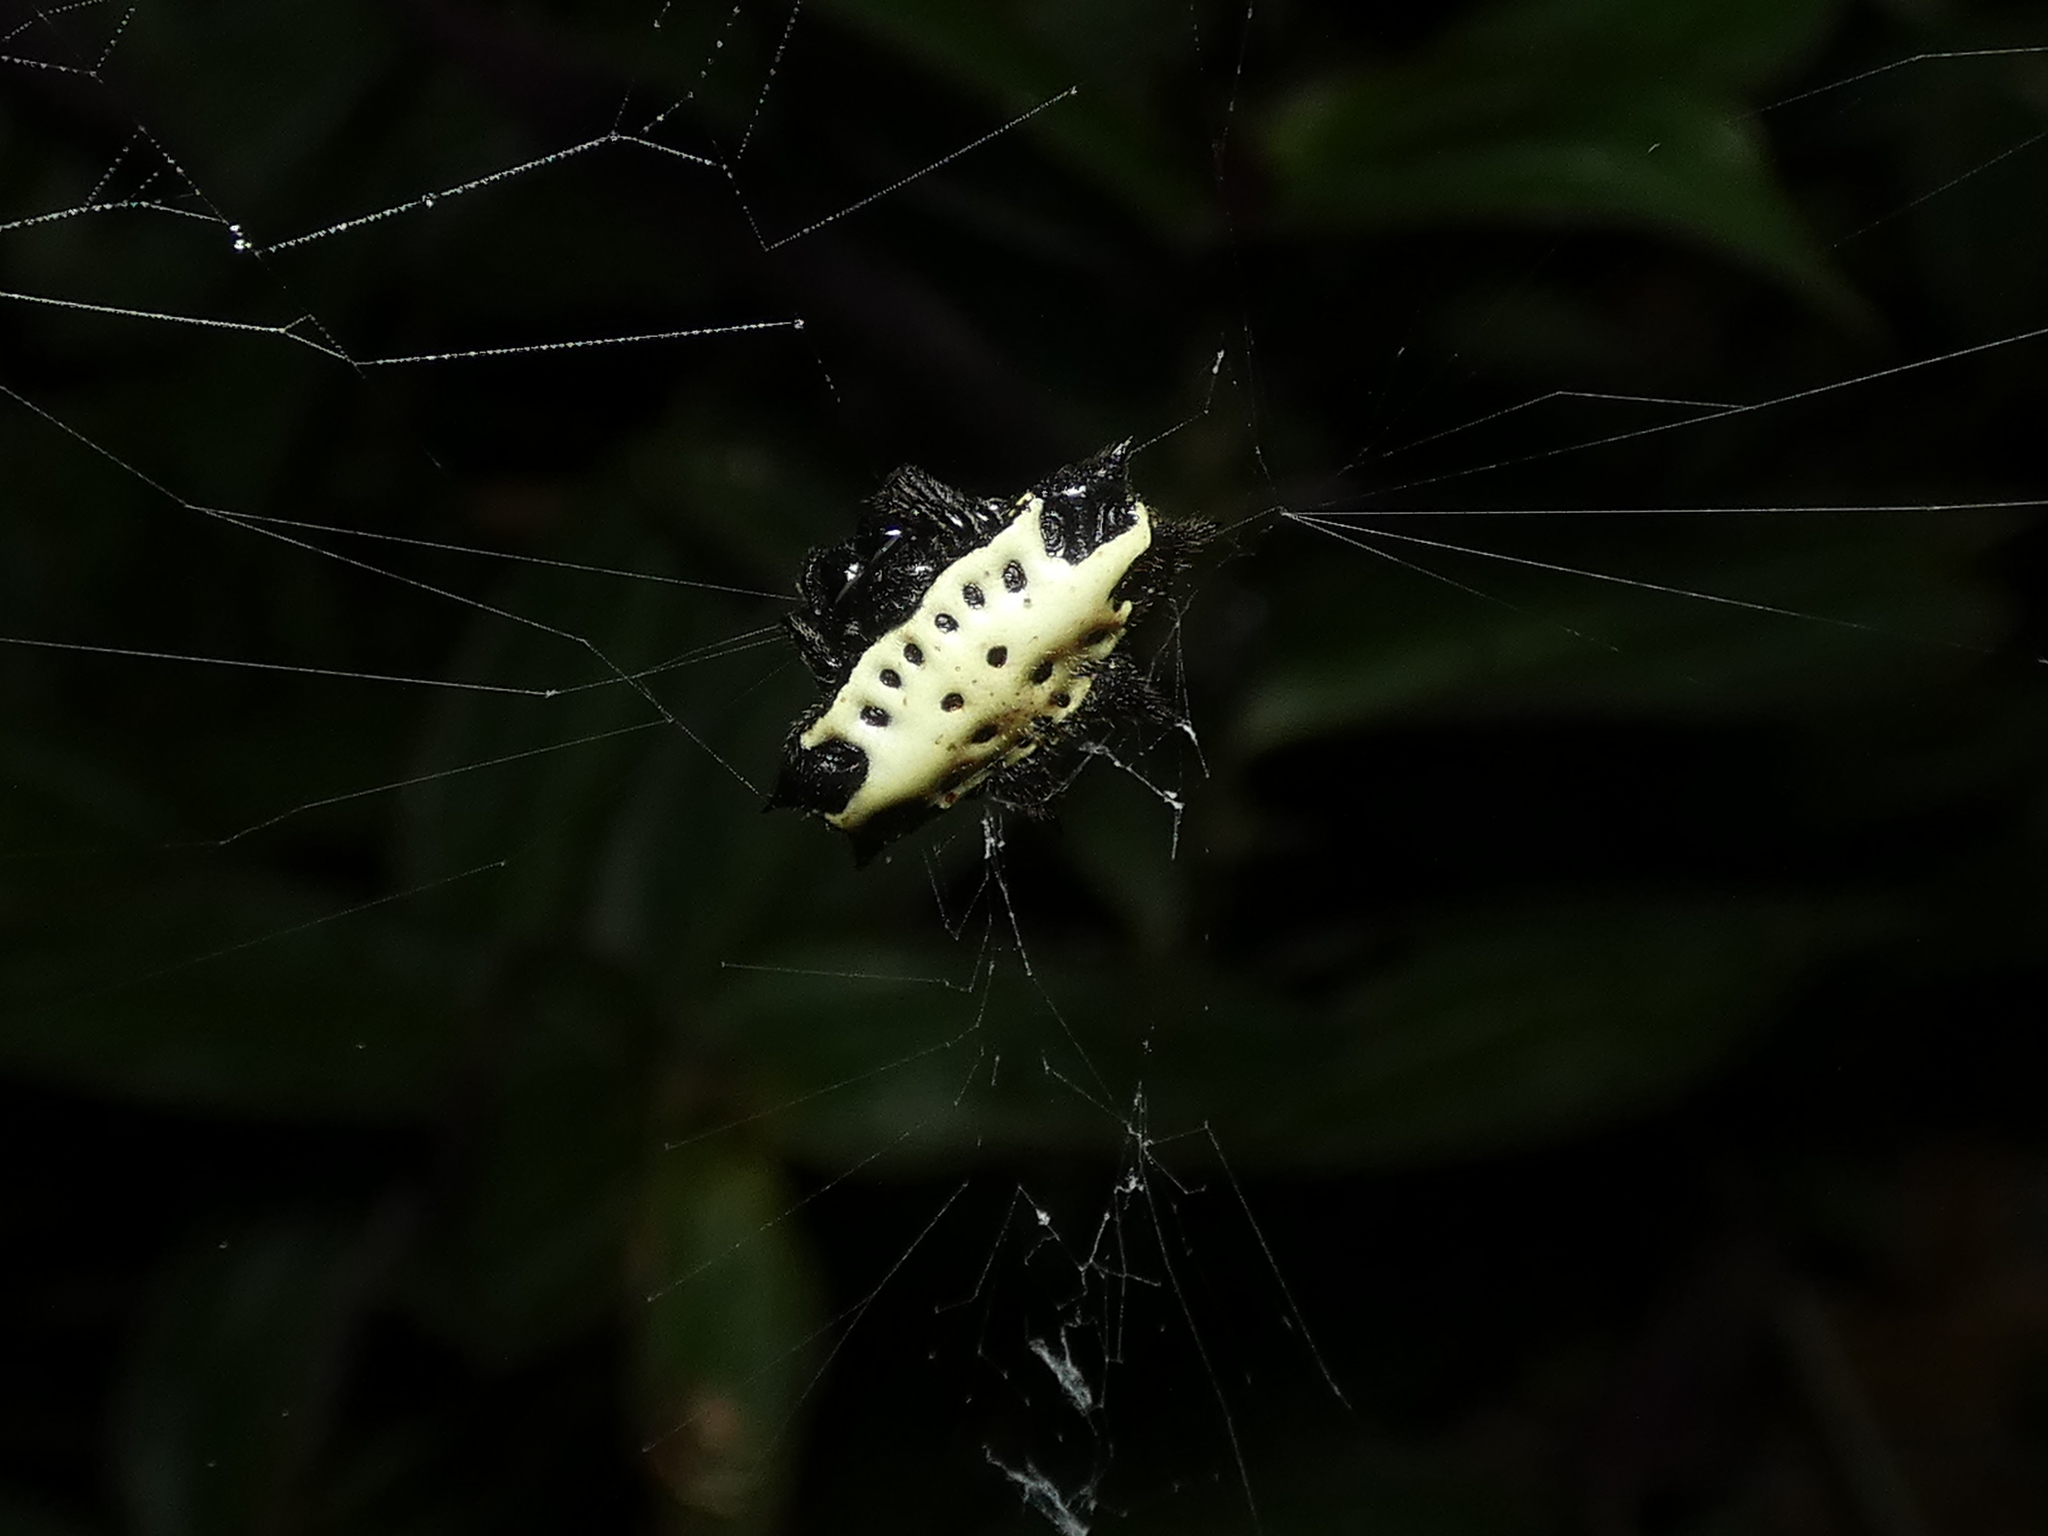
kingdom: Animalia
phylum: Arthropoda
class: Arachnida
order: Araneae
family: Araneidae
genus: Gasteracantha
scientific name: Gasteracantha cancriformis
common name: Orb weavers
